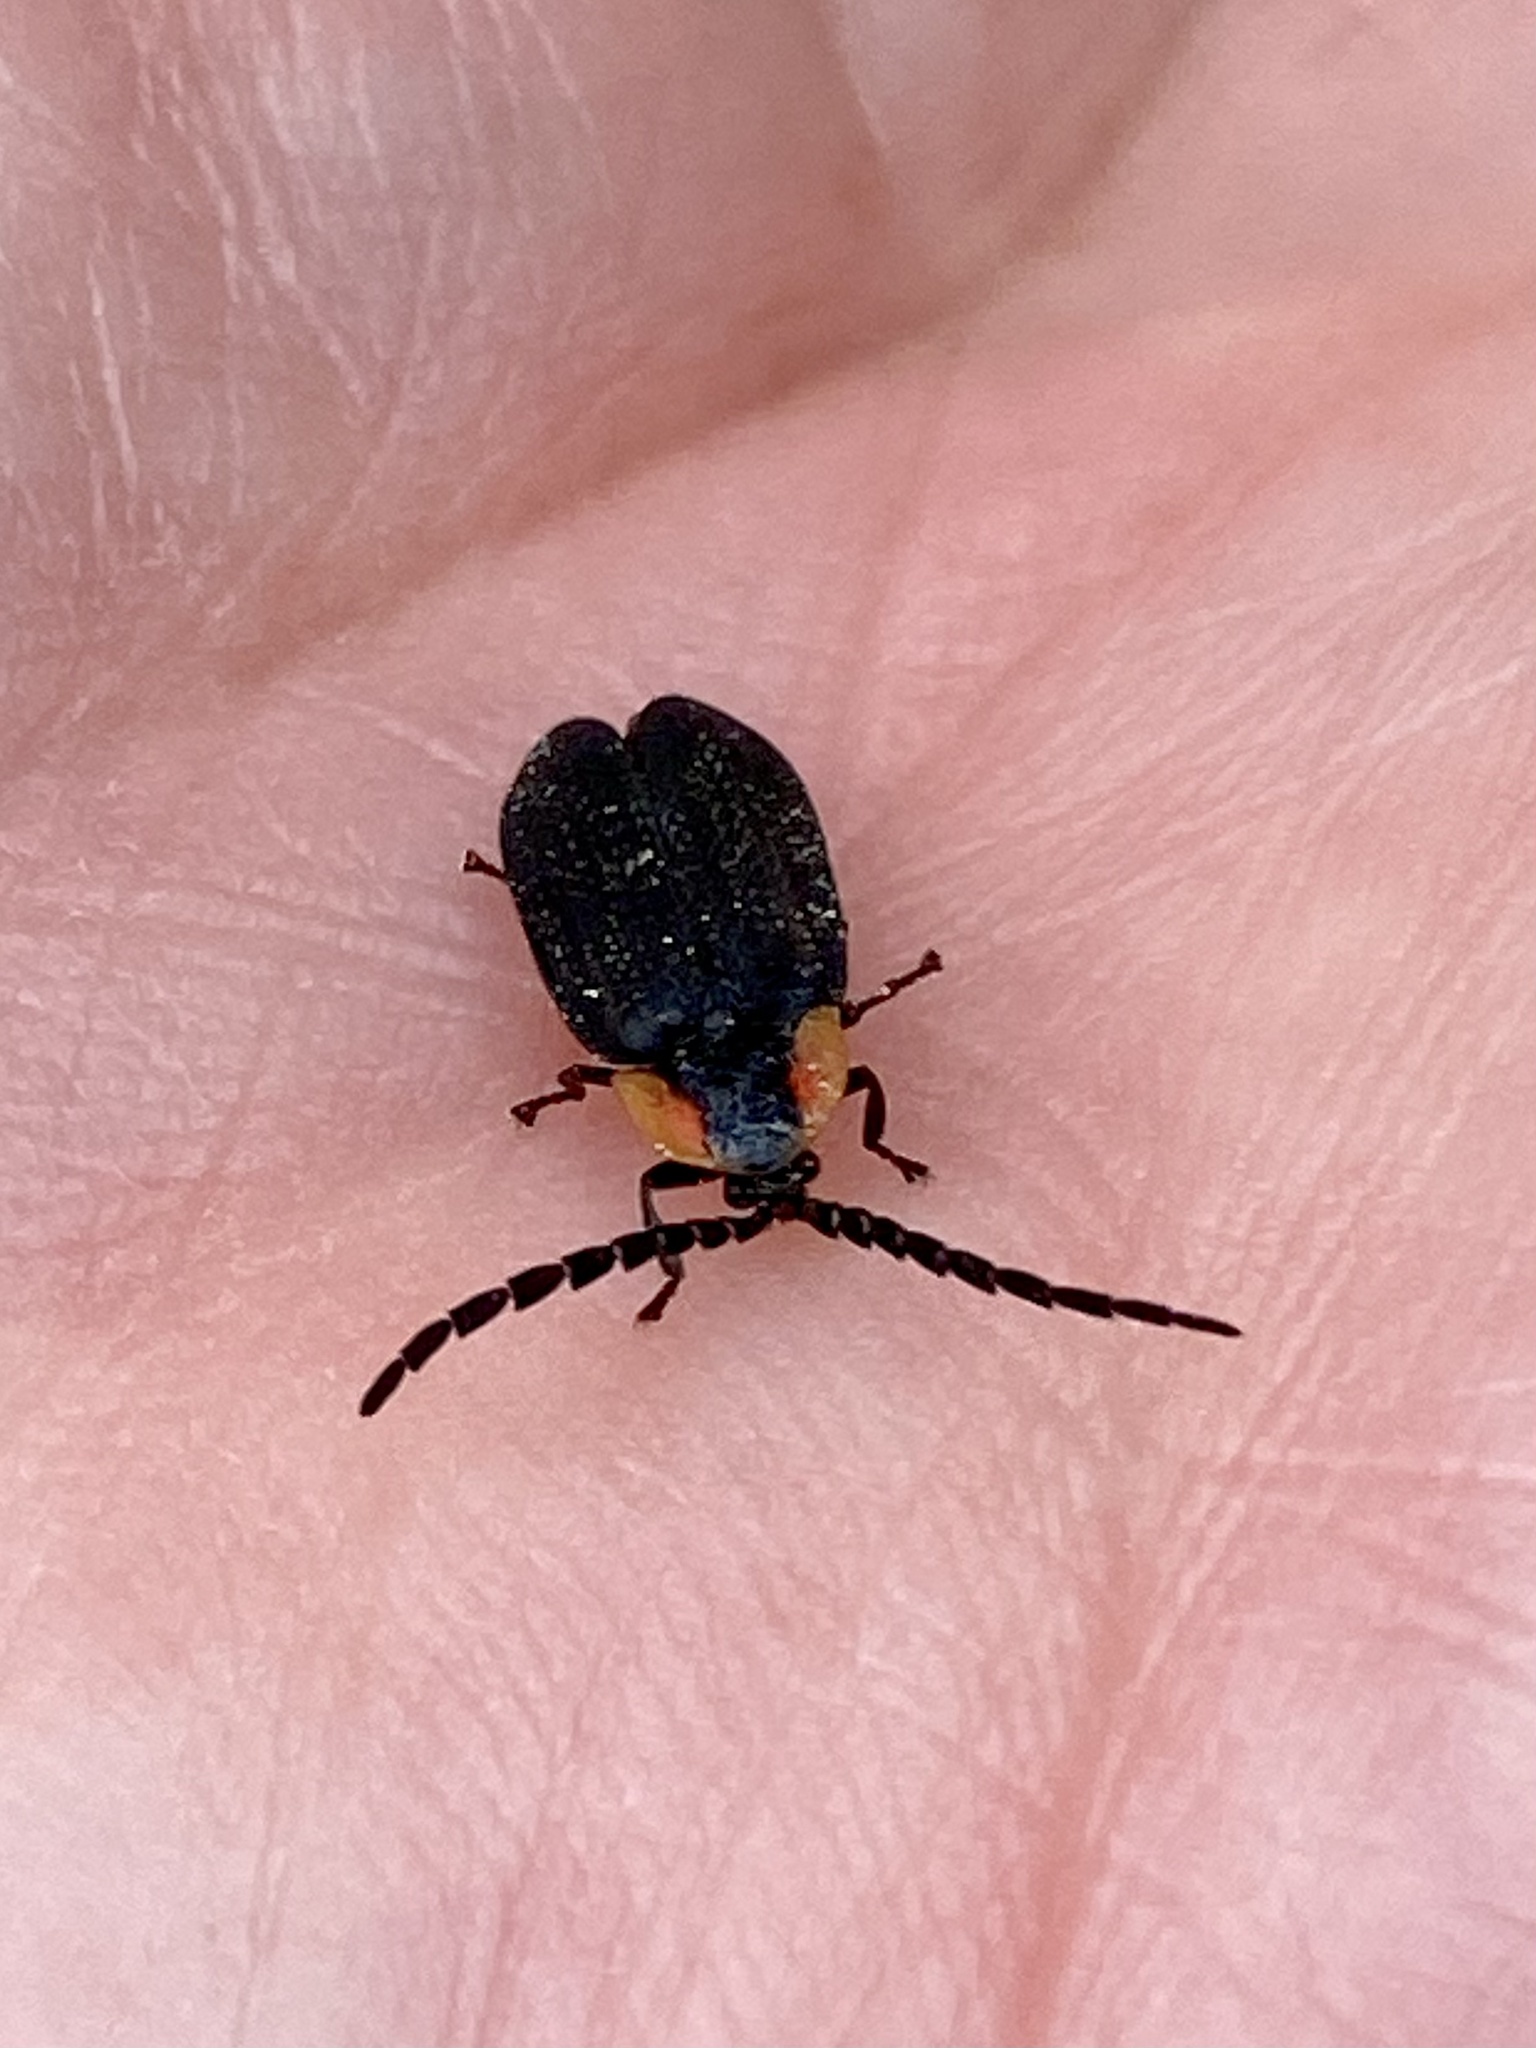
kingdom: Animalia
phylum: Arthropoda
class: Insecta
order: Coleoptera
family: Lampyridae
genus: Lucidota
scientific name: Lucidota atra
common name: Black firefly
